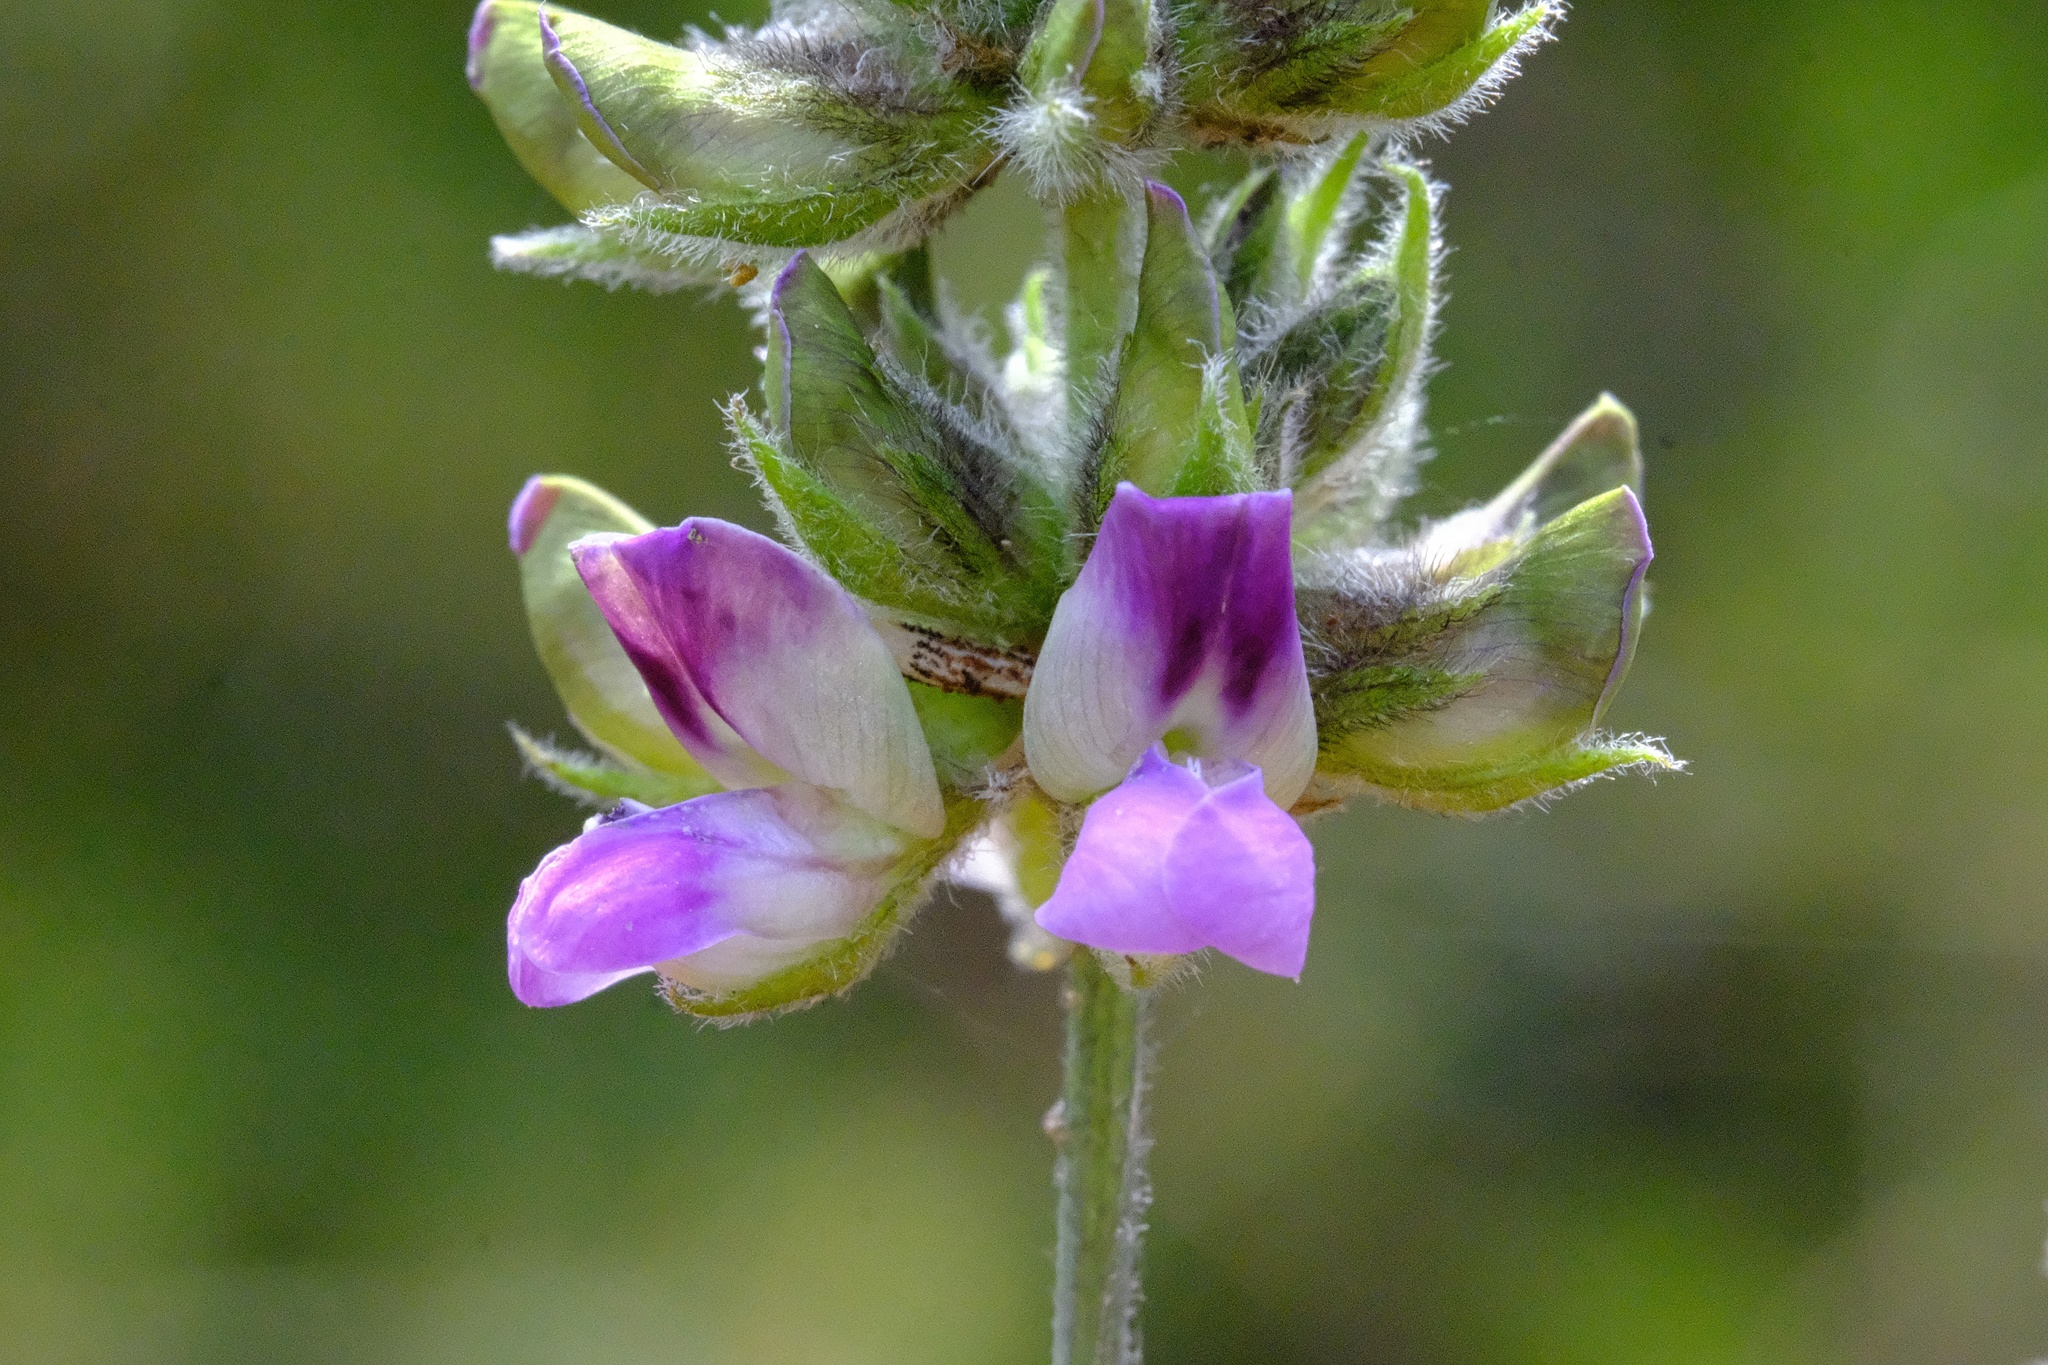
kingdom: Plantae
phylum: Tracheophyta
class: Magnoliopsida
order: Fabales
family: Fabaceae
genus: Hoita
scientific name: Hoita macrostachya
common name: Leatherroot
